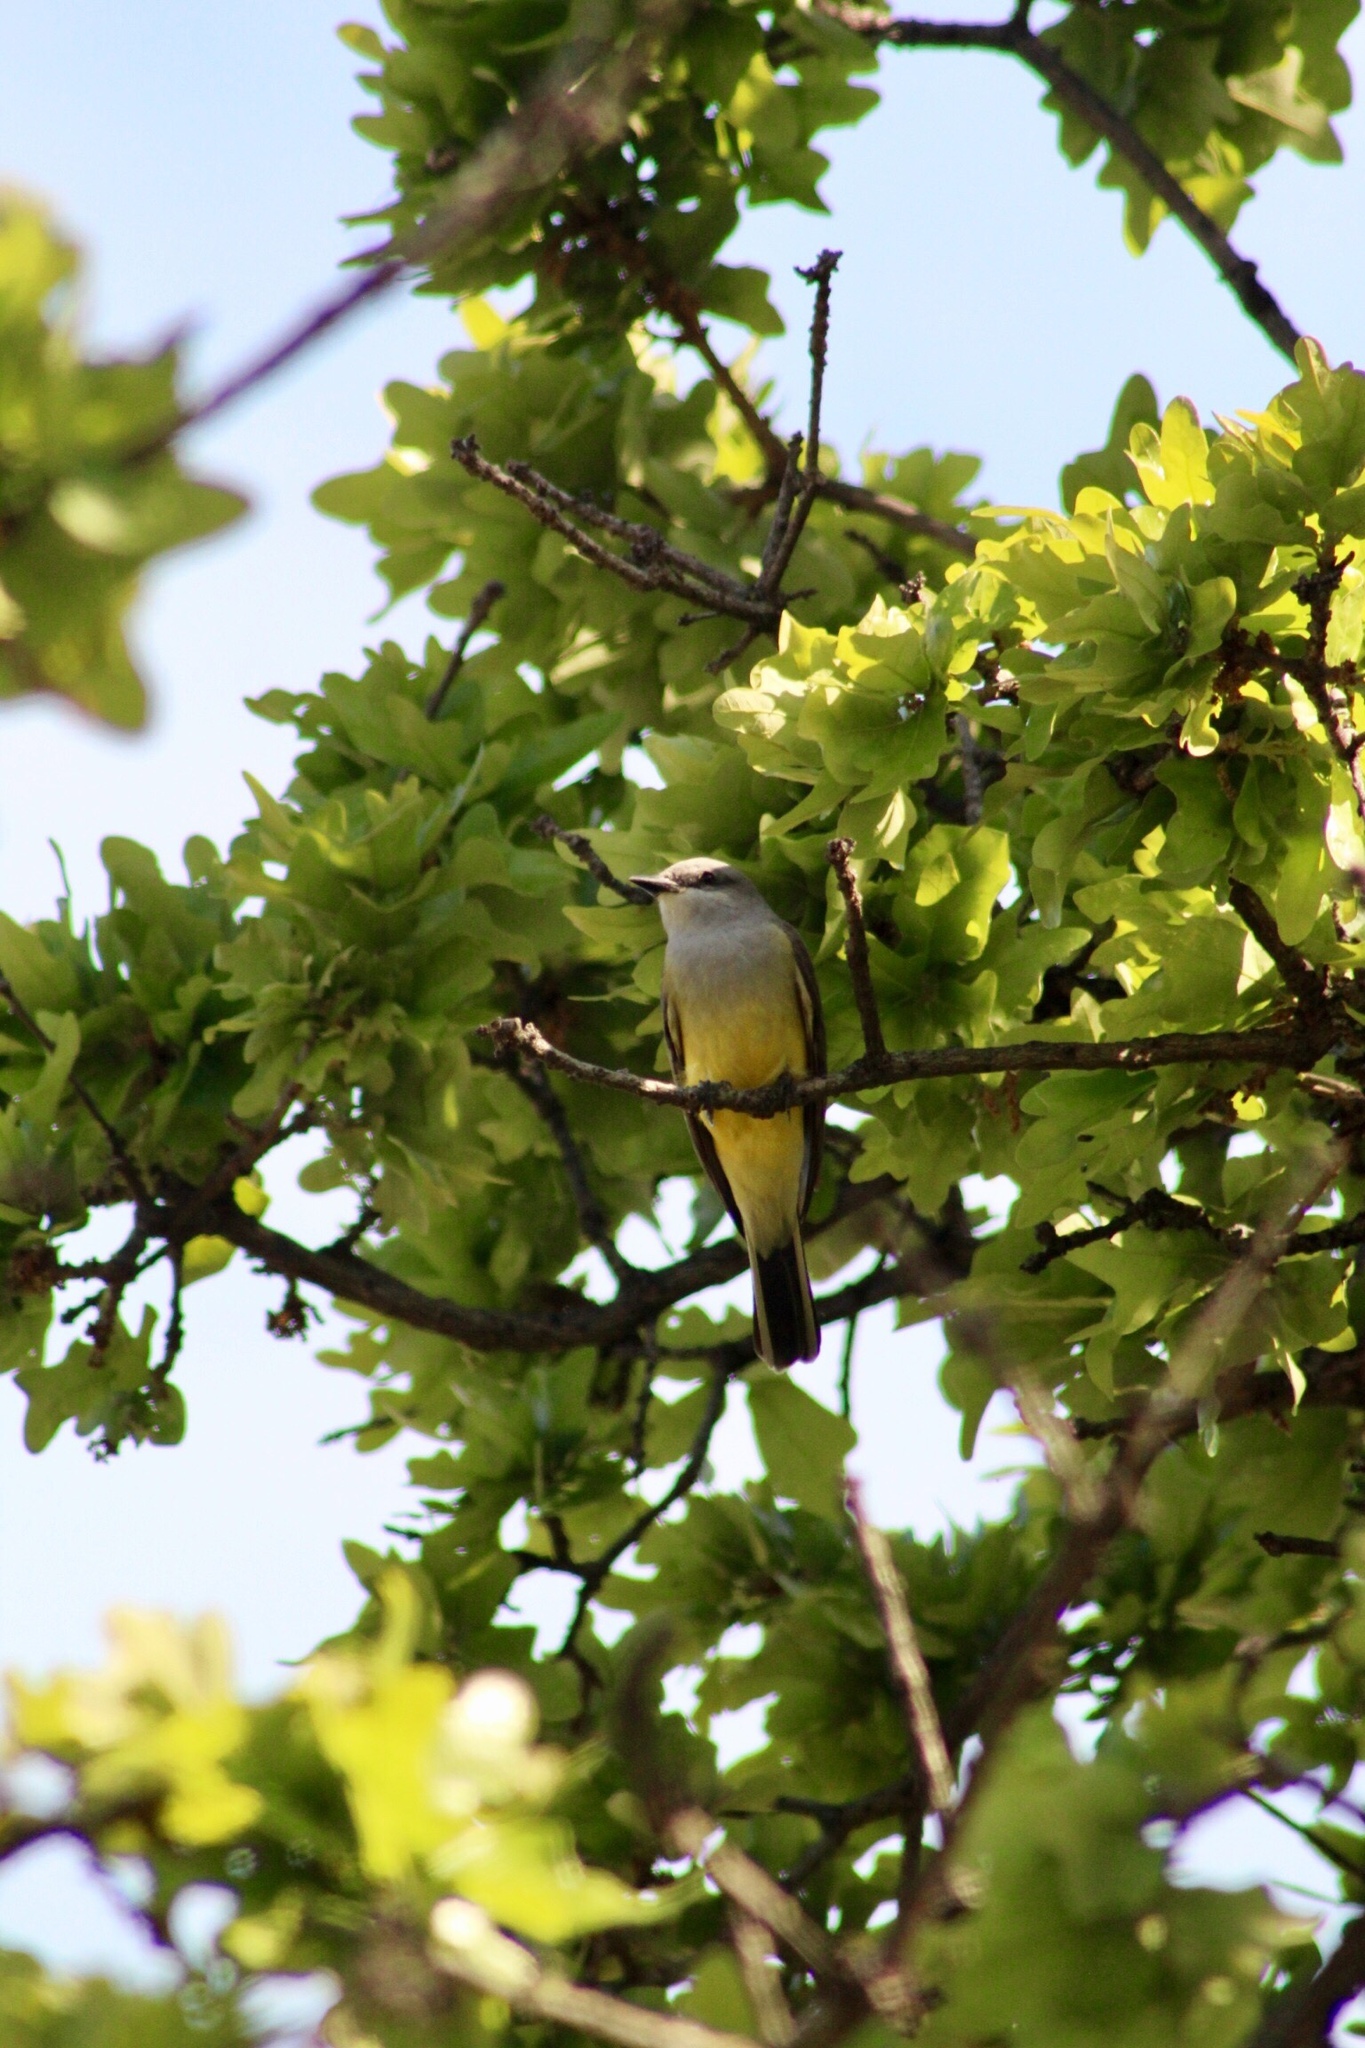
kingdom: Animalia
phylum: Chordata
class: Aves
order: Passeriformes
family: Tyrannidae
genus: Tyrannus
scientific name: Tyrannus verticalis
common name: Western kingbird
